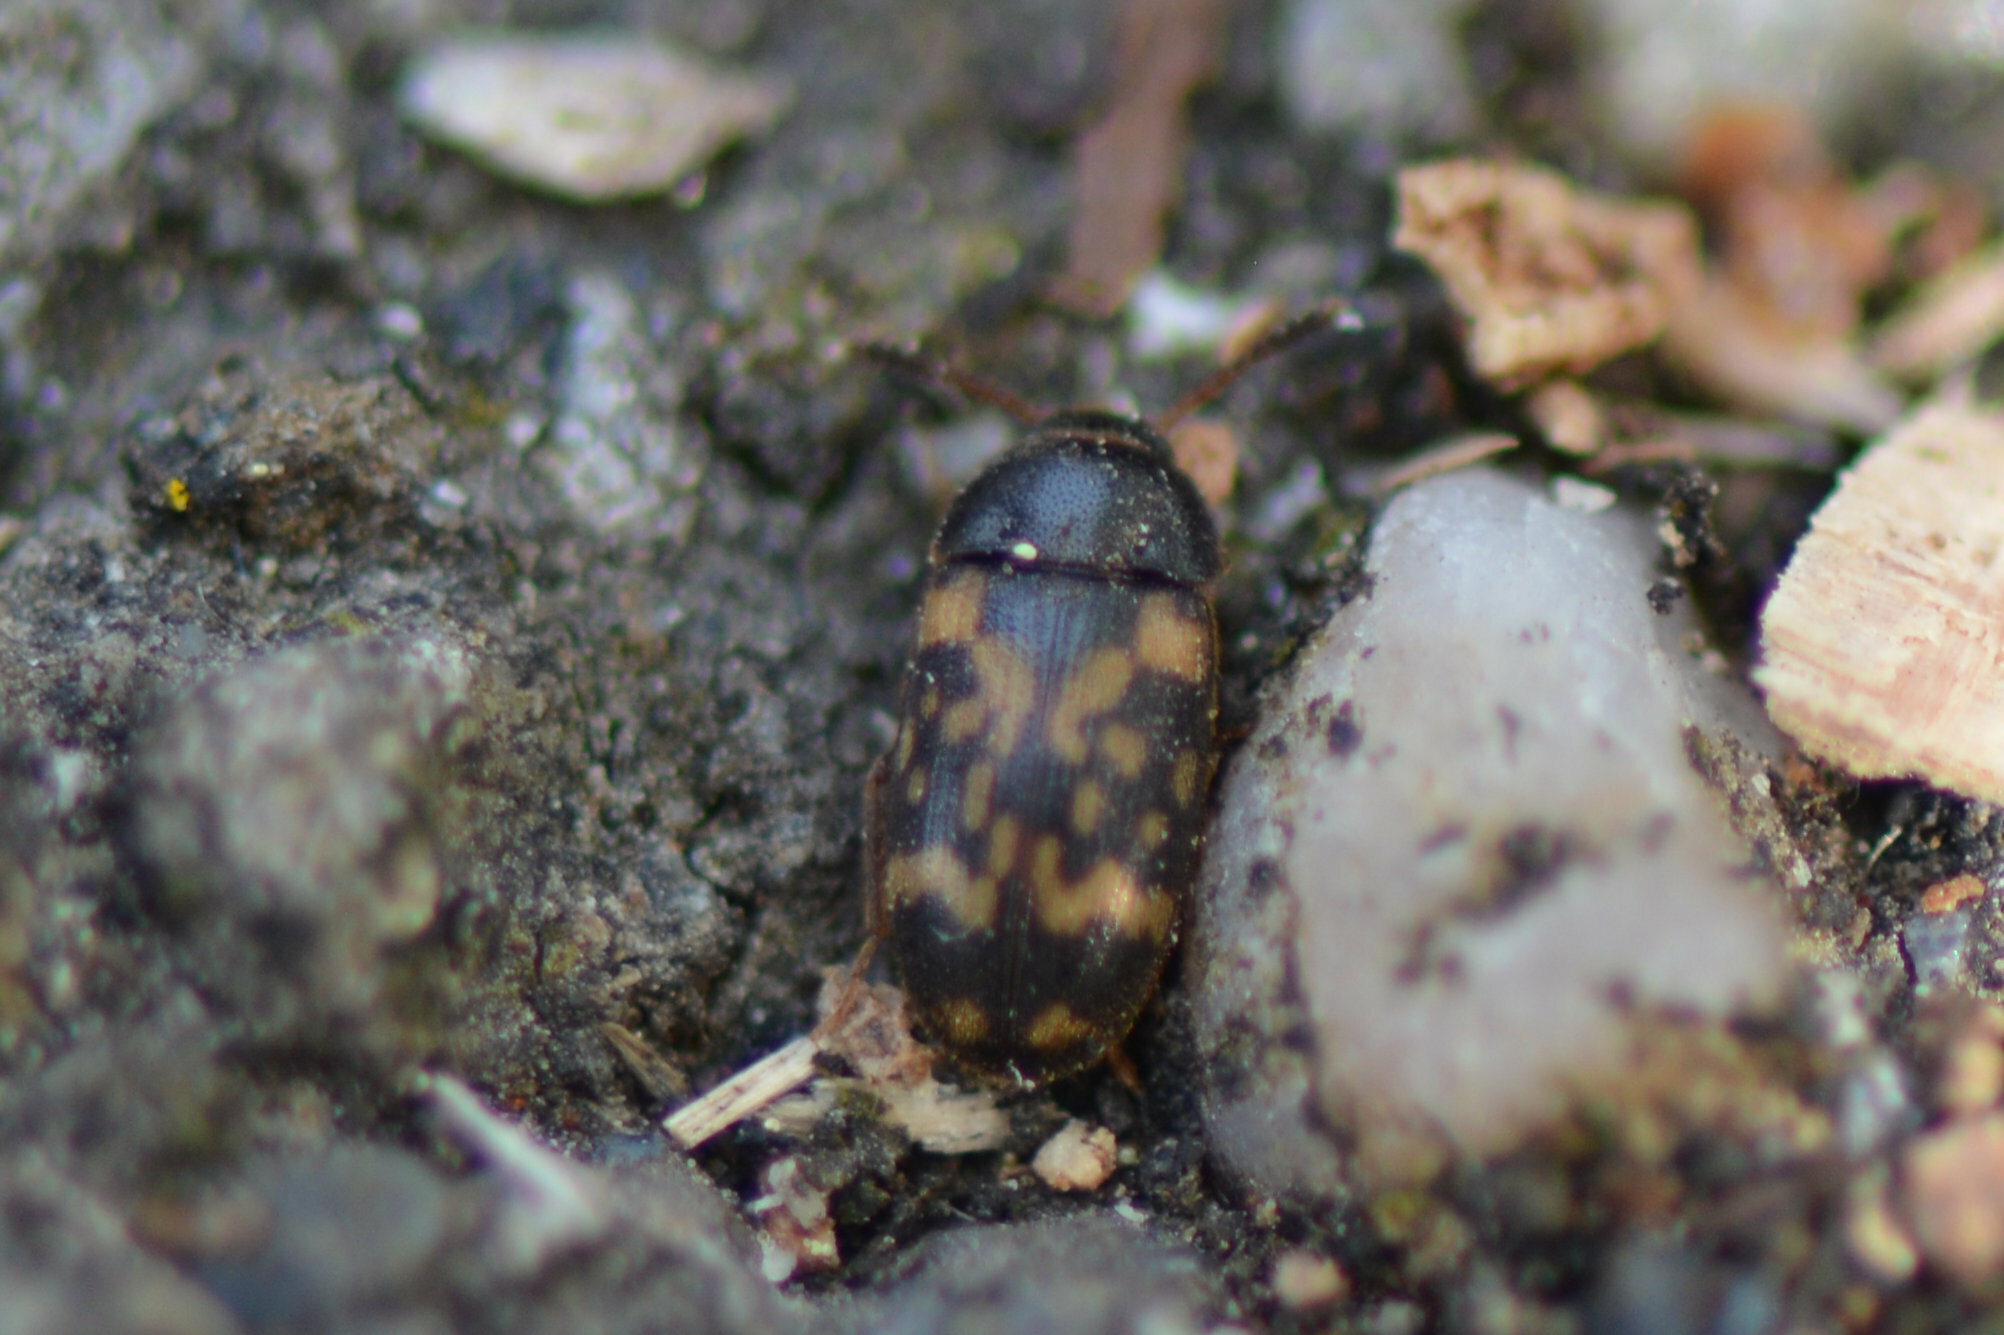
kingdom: Animalia
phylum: Arthropoda
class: Insecta
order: Coleoptera
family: Mycetophagidae
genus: Mycetophagus
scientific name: Mycetophagus atomarius
